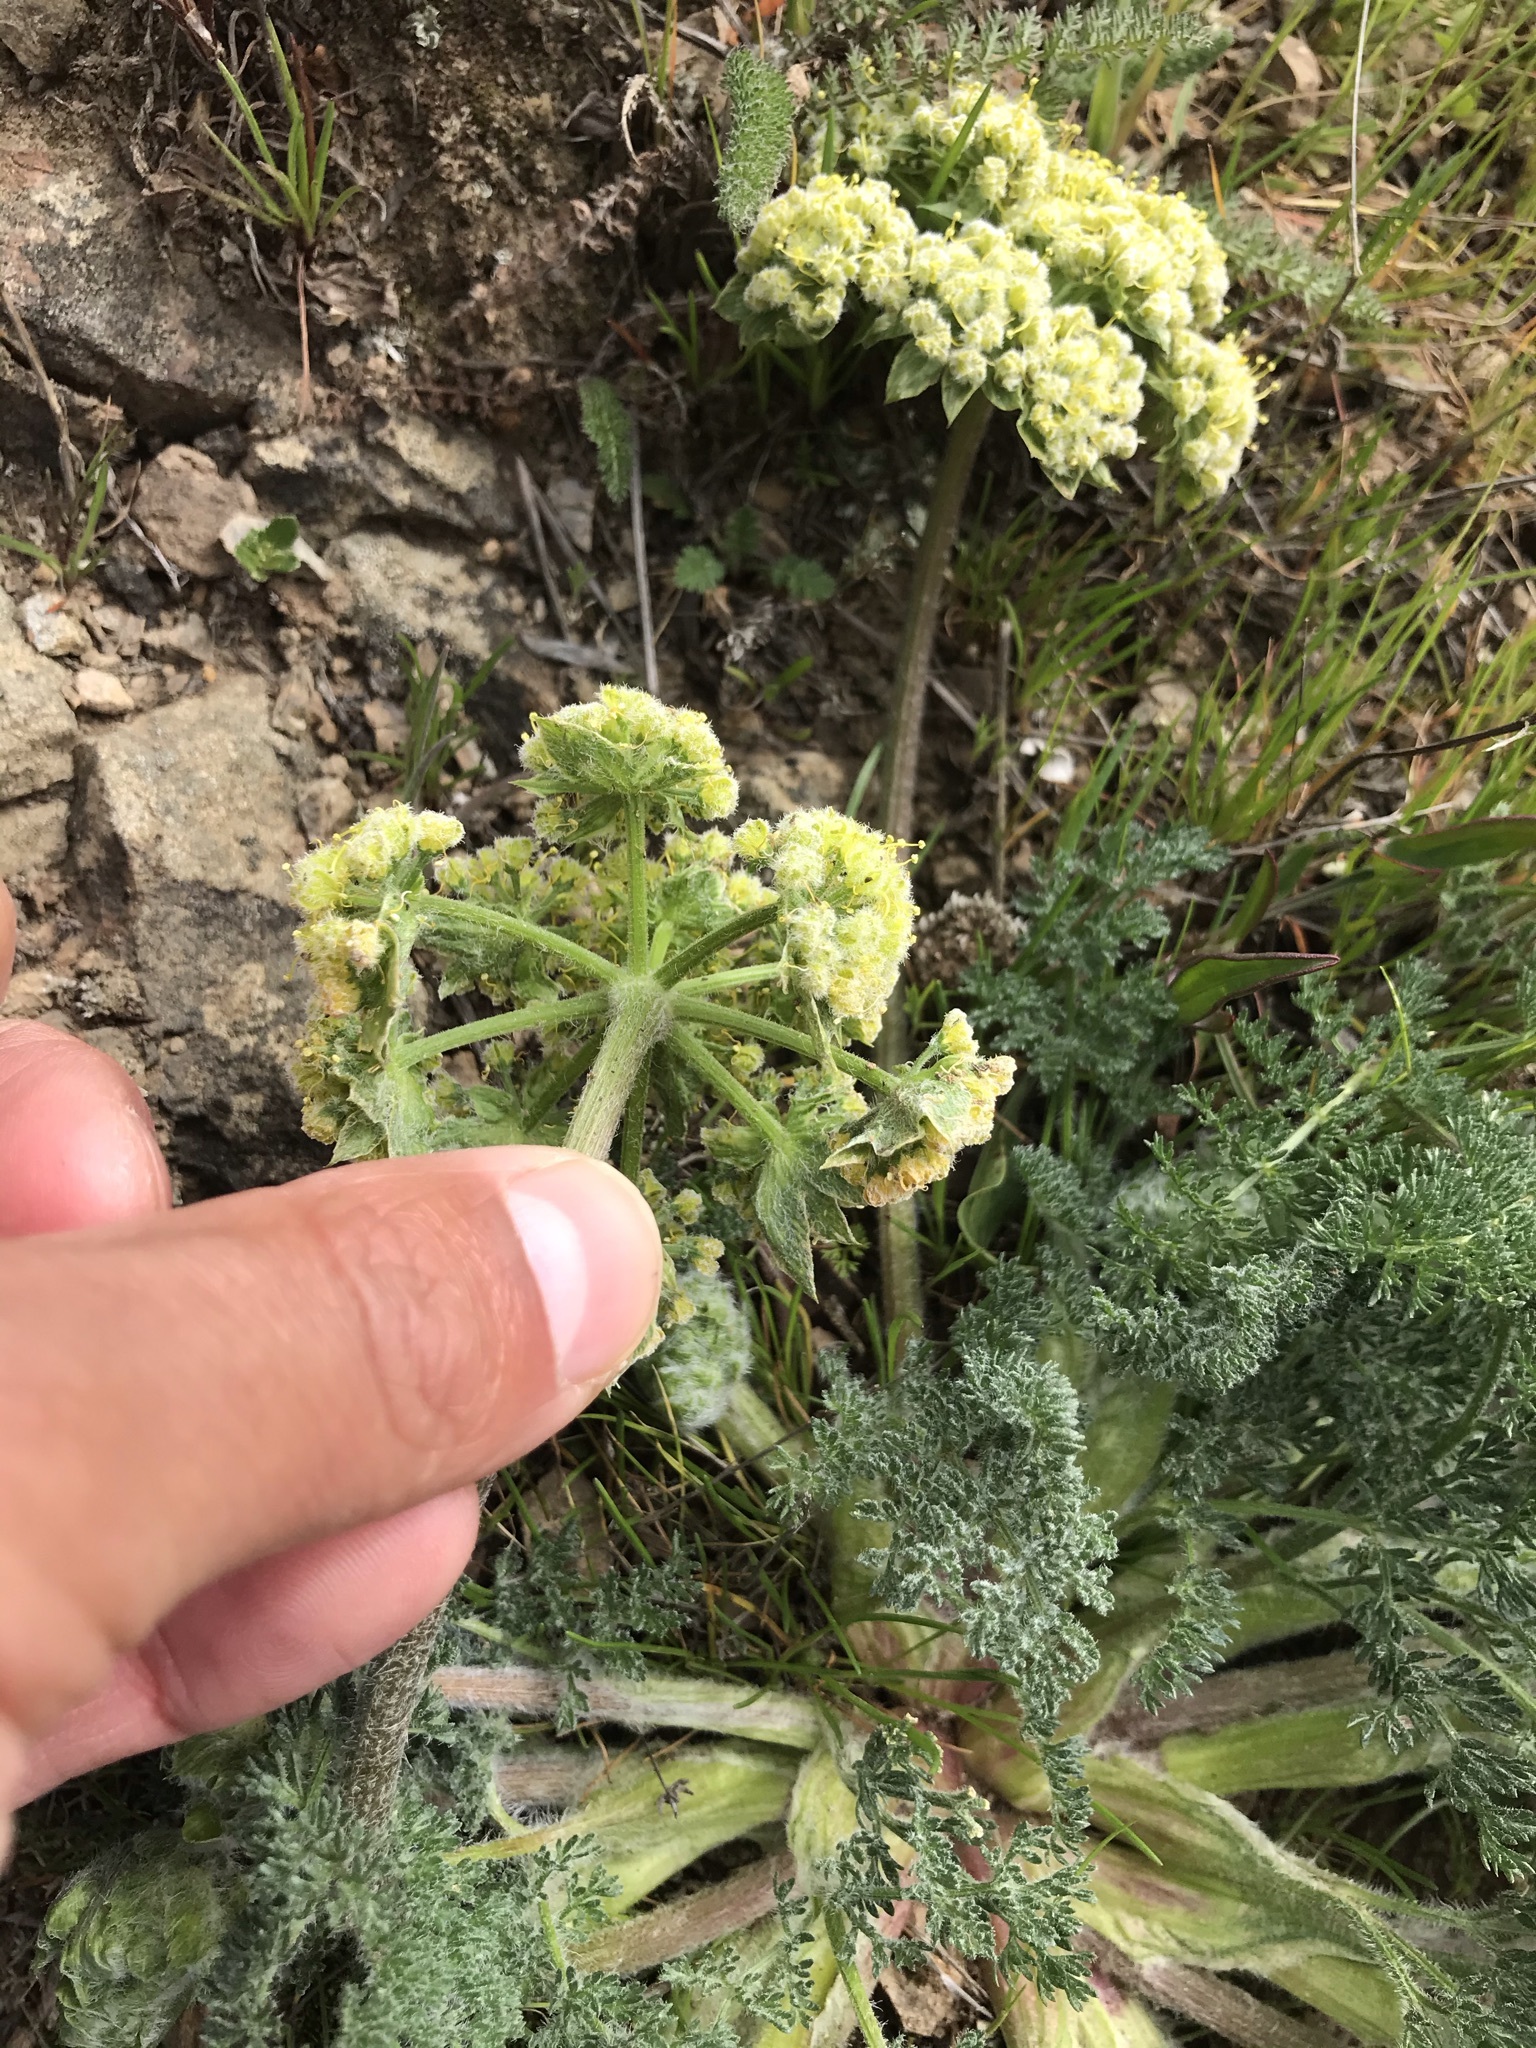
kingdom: Plantae
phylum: Tracheophyta
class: Magnoliopsida
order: Apiales
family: Apiaceae
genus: Lomatium
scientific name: Lomatium dasycarpum
